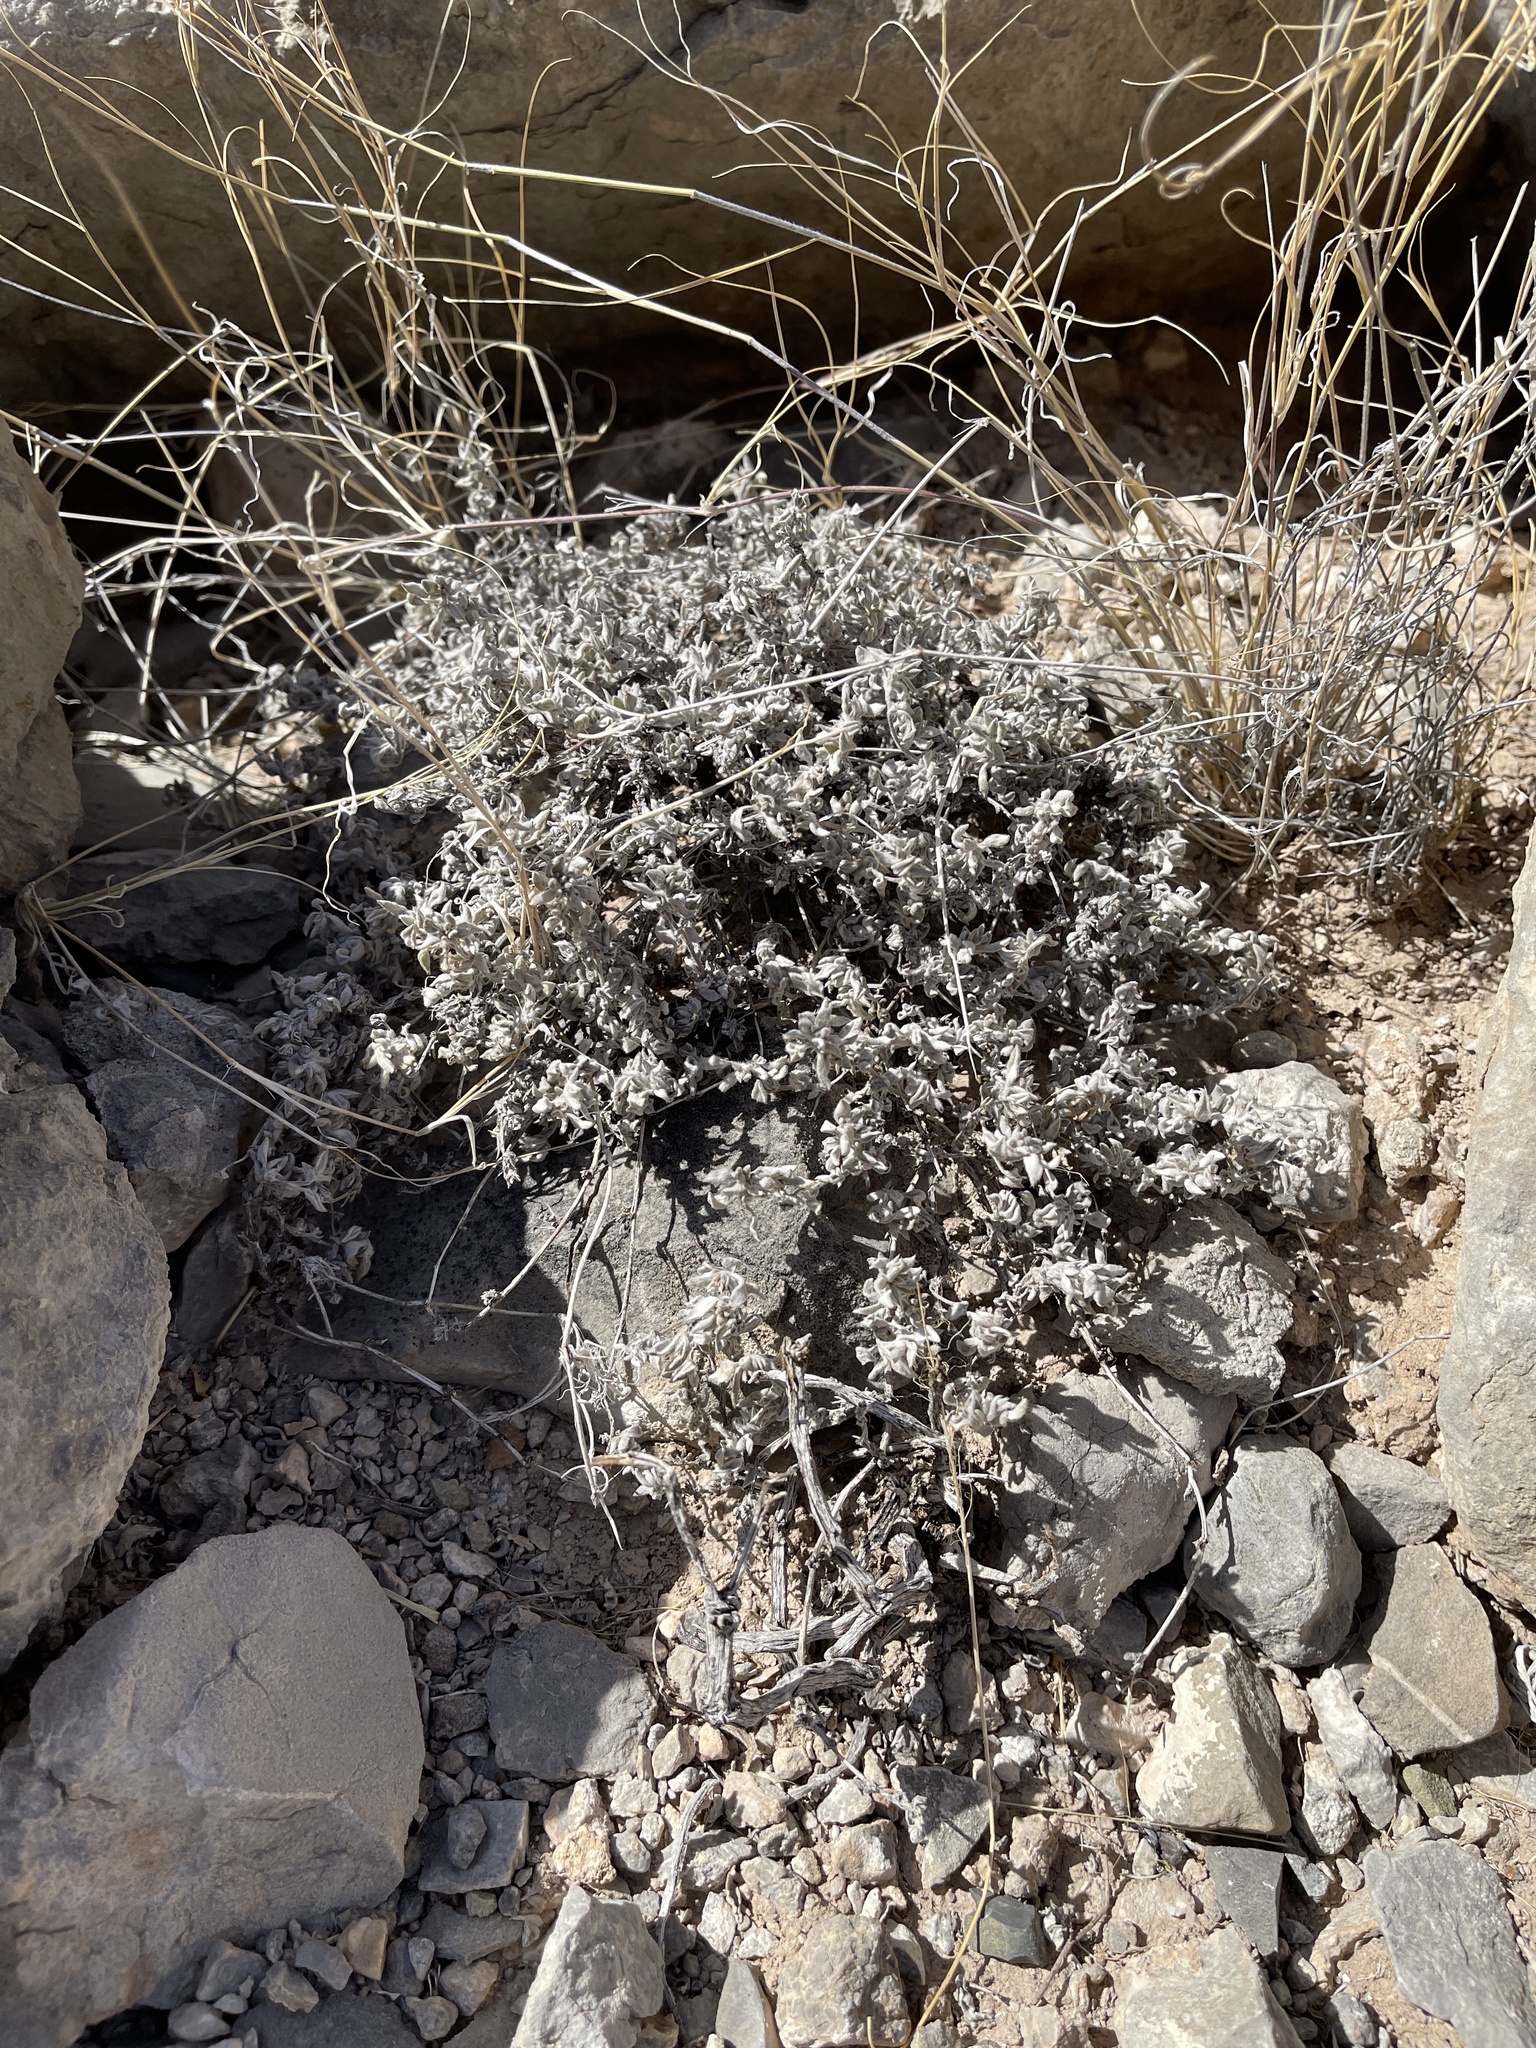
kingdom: Plantae
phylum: Tracheophyta
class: Magnoliopsida
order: Boraginales
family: Ehretiaceae
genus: Tiquilia
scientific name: Tiquilia canescens
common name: Hairy tiquilia
